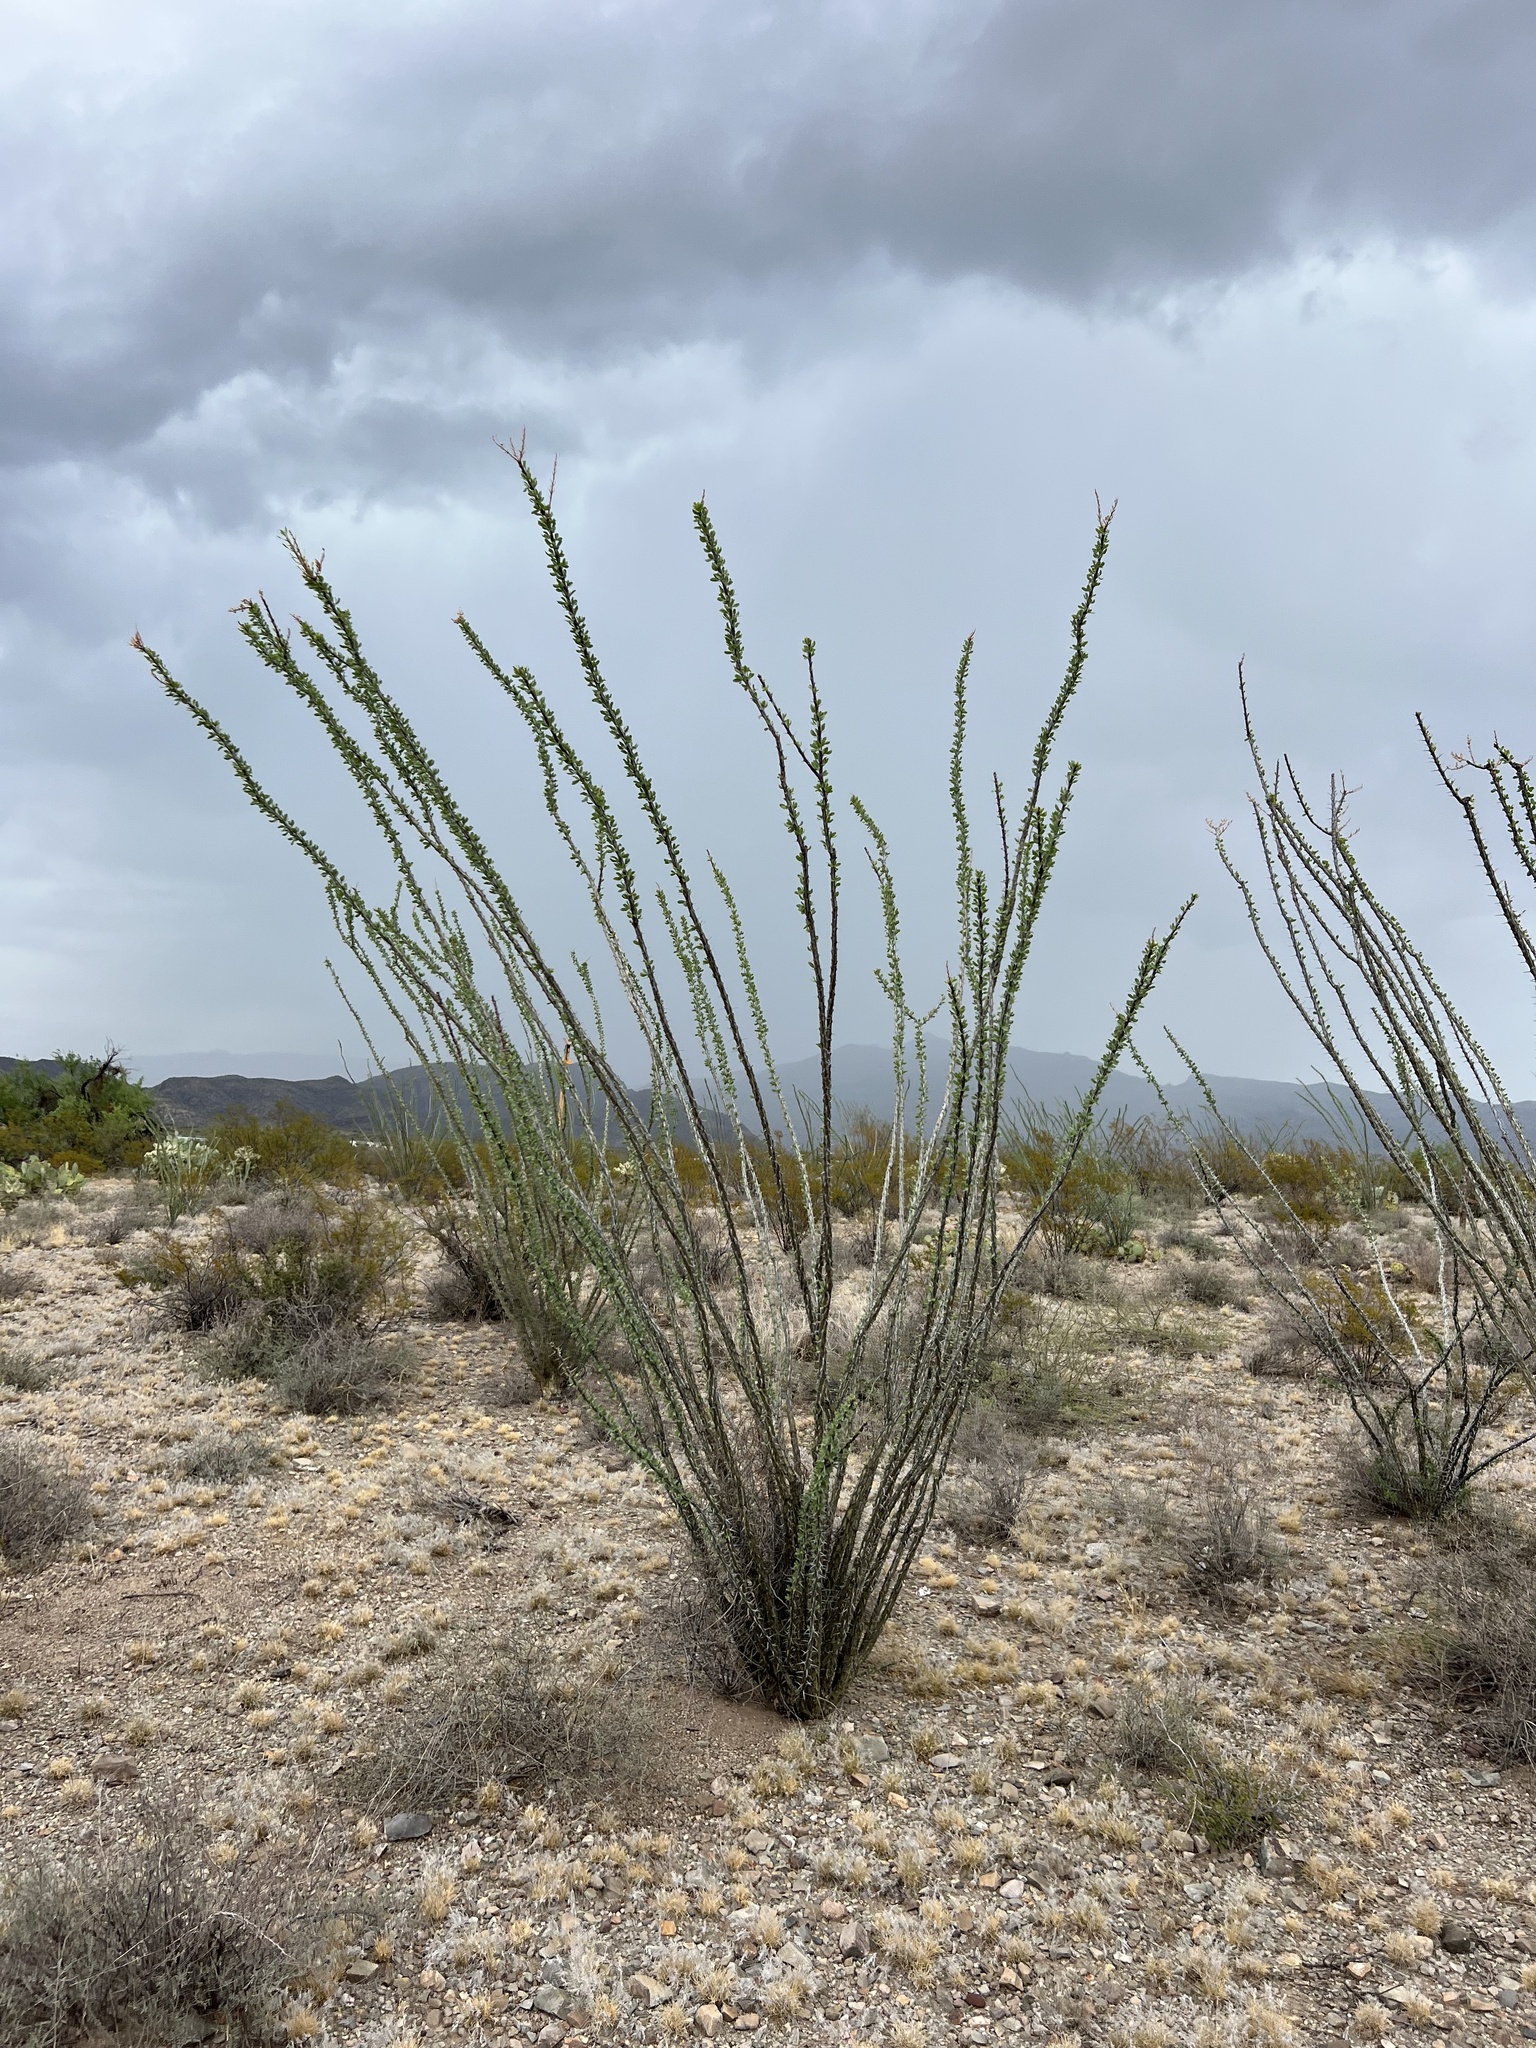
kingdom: Plantae
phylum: Tracheophyta
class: Magnoliopsida
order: Ericales
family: Fouquieriaceae
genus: Fouquieria
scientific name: Fouquieria splendens
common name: Vine-cactus
